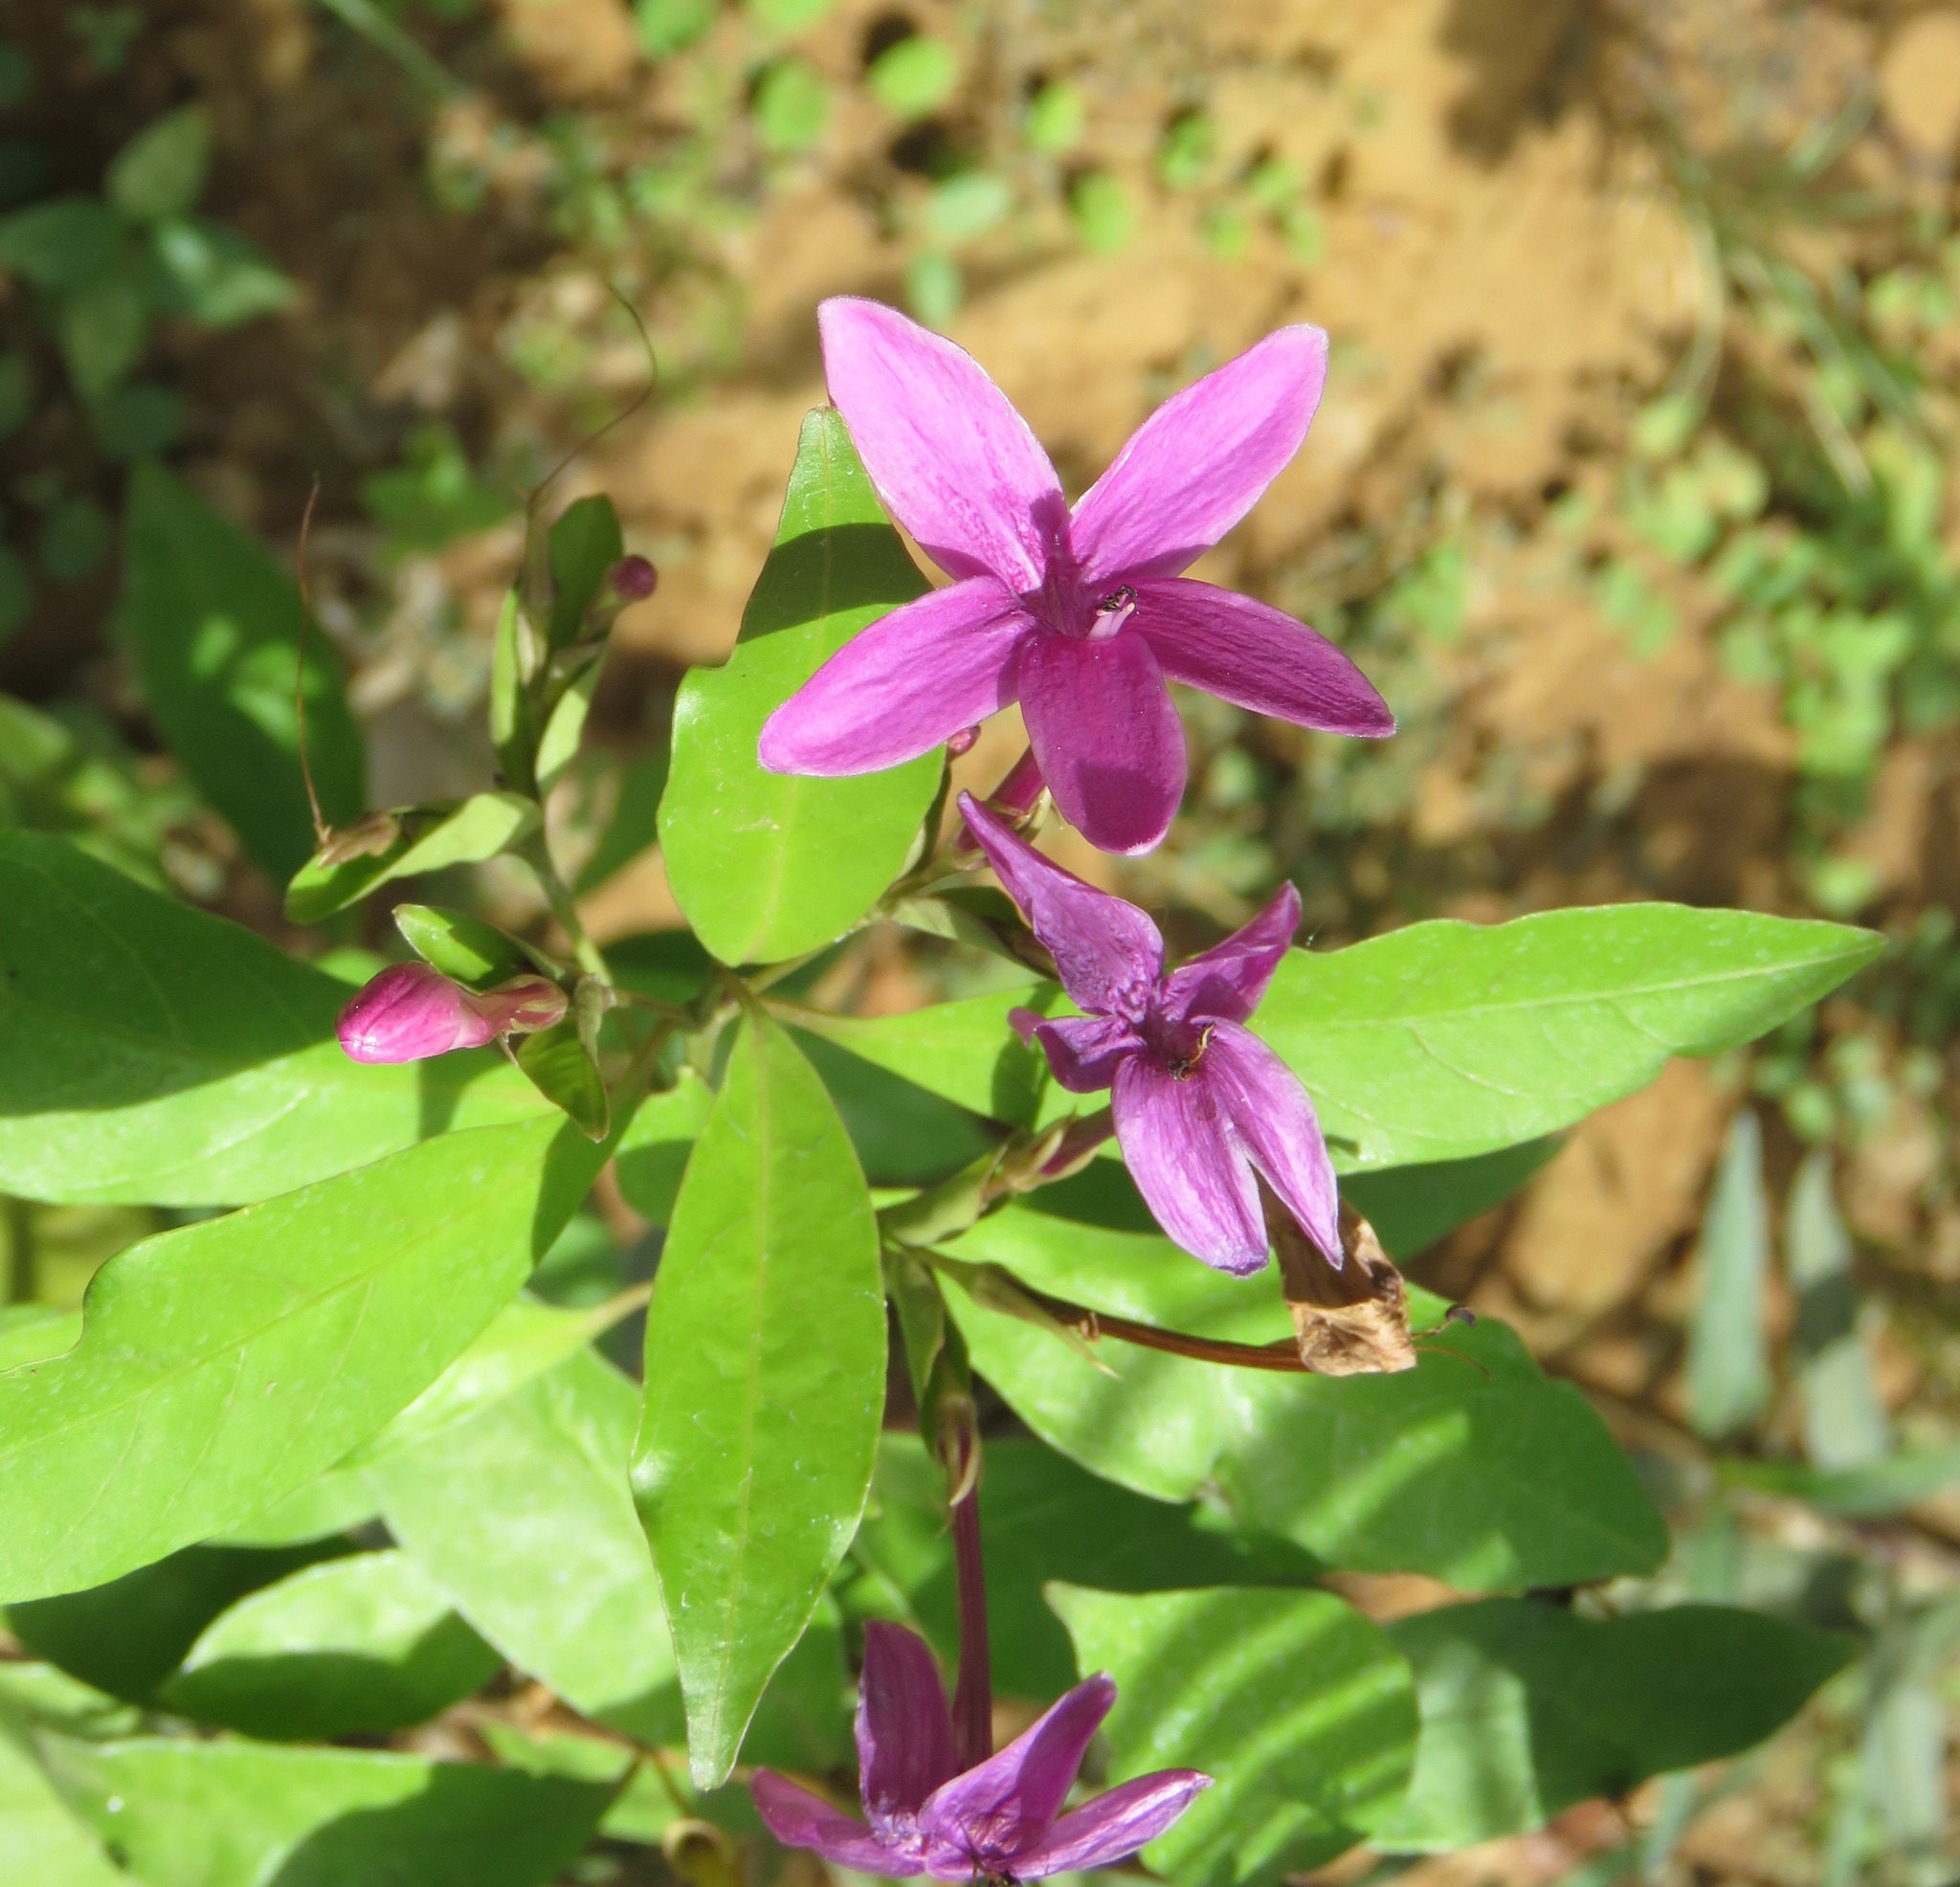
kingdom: Plantae
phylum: Tracheophyta
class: Magnoliopsida
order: Lamiales
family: Acanthaceae
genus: Pseuderanthemum
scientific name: Pseuderanthemum laxiflorum
